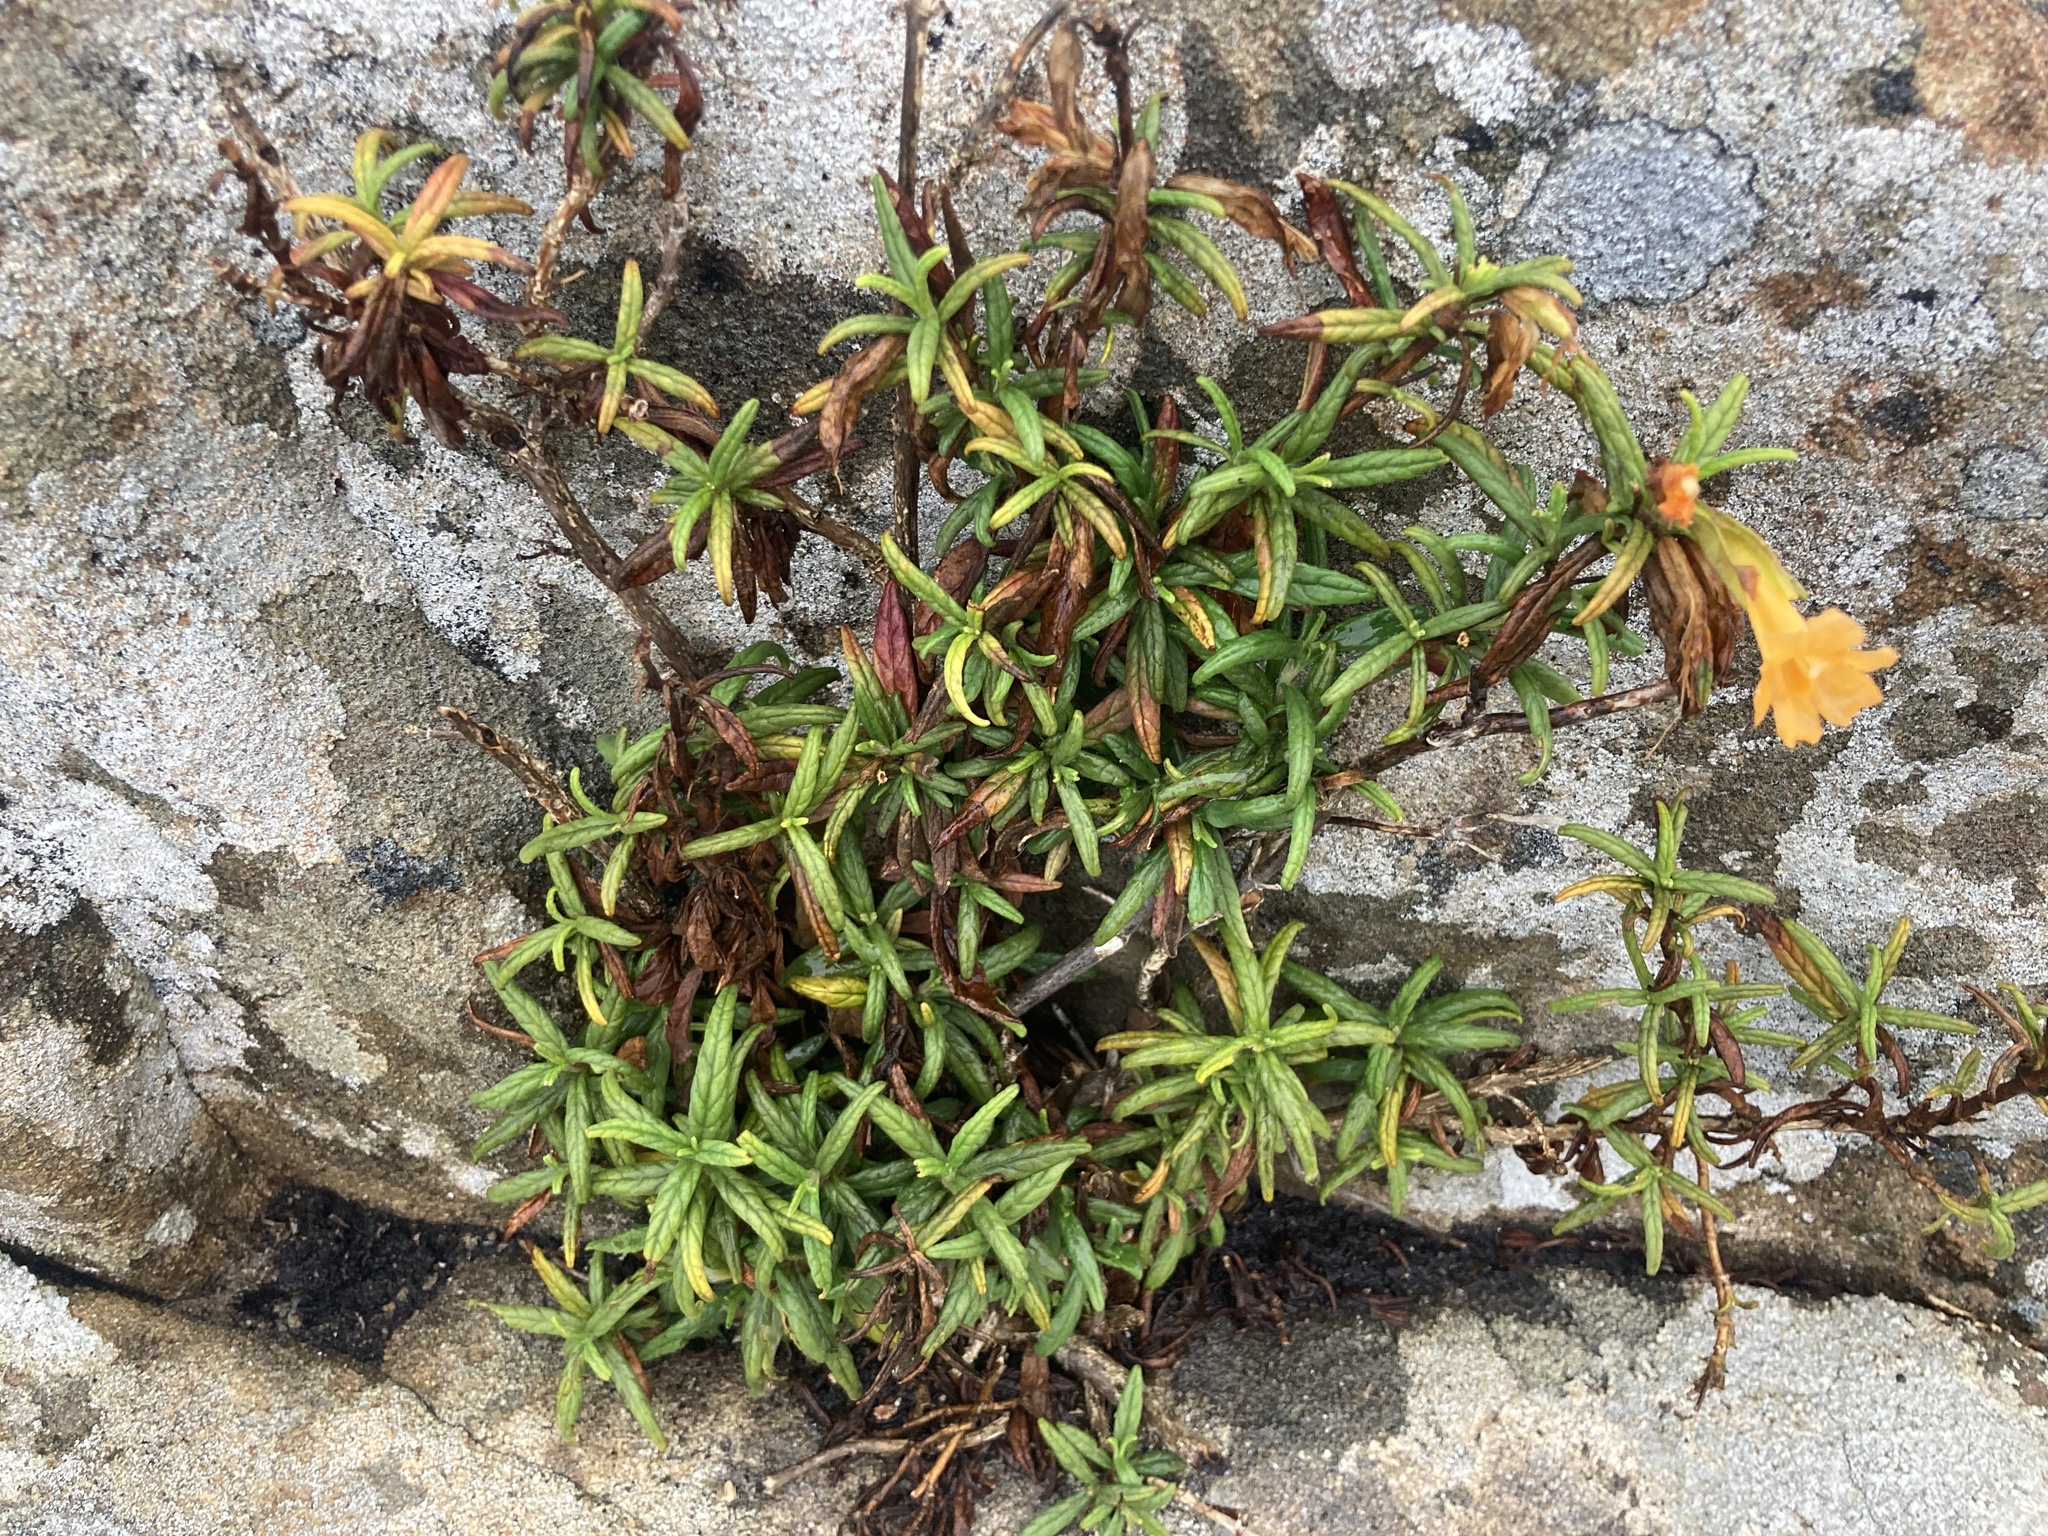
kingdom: Plantae
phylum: Tracheophyta
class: Magnoliopsida
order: Lamiales
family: Phrymaceae
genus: Diplacus
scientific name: Diplacus aurantiacus
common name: Bush monkey-flower
